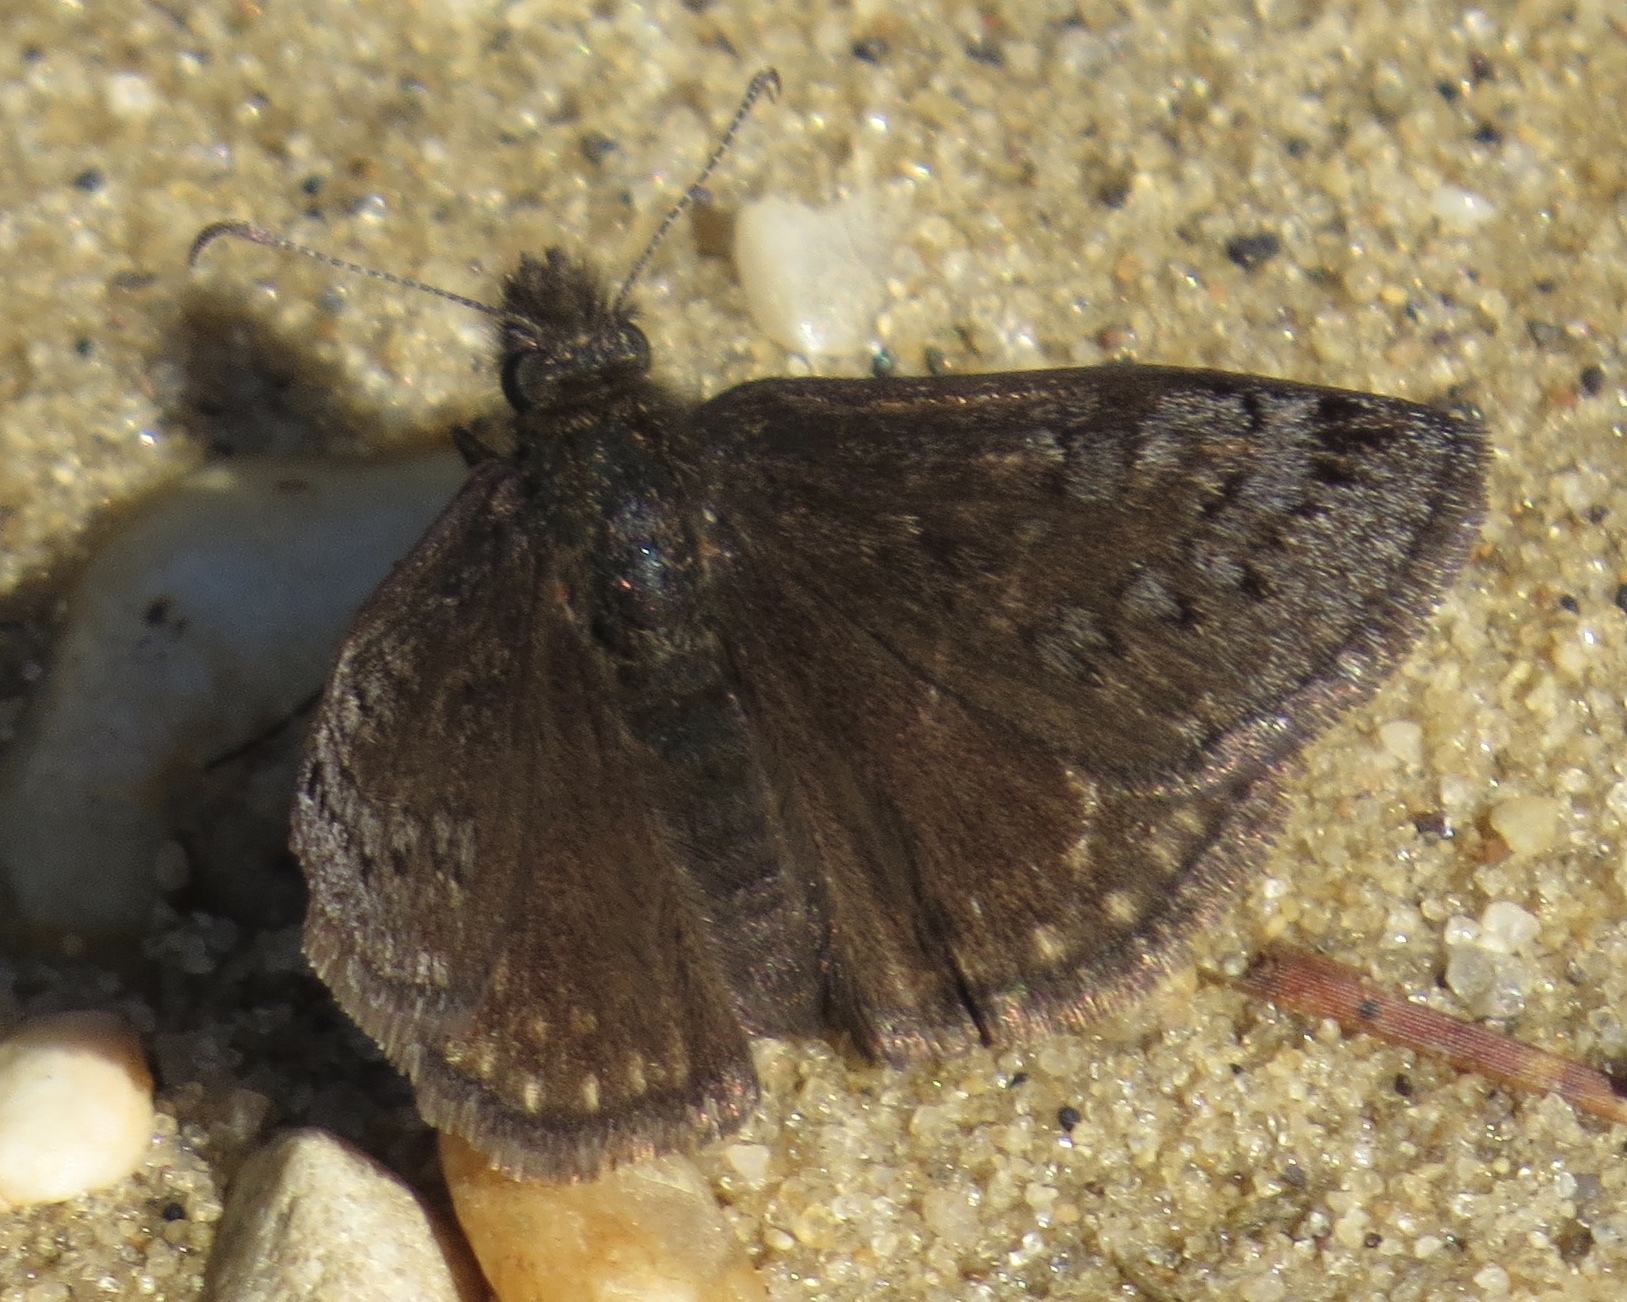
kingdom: Animalia
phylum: Arthropoda
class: Insecta
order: Lepidoptera
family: Hesperiidae
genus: Erynnis
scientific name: Erynnis brizo
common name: Sleepy duskywing
